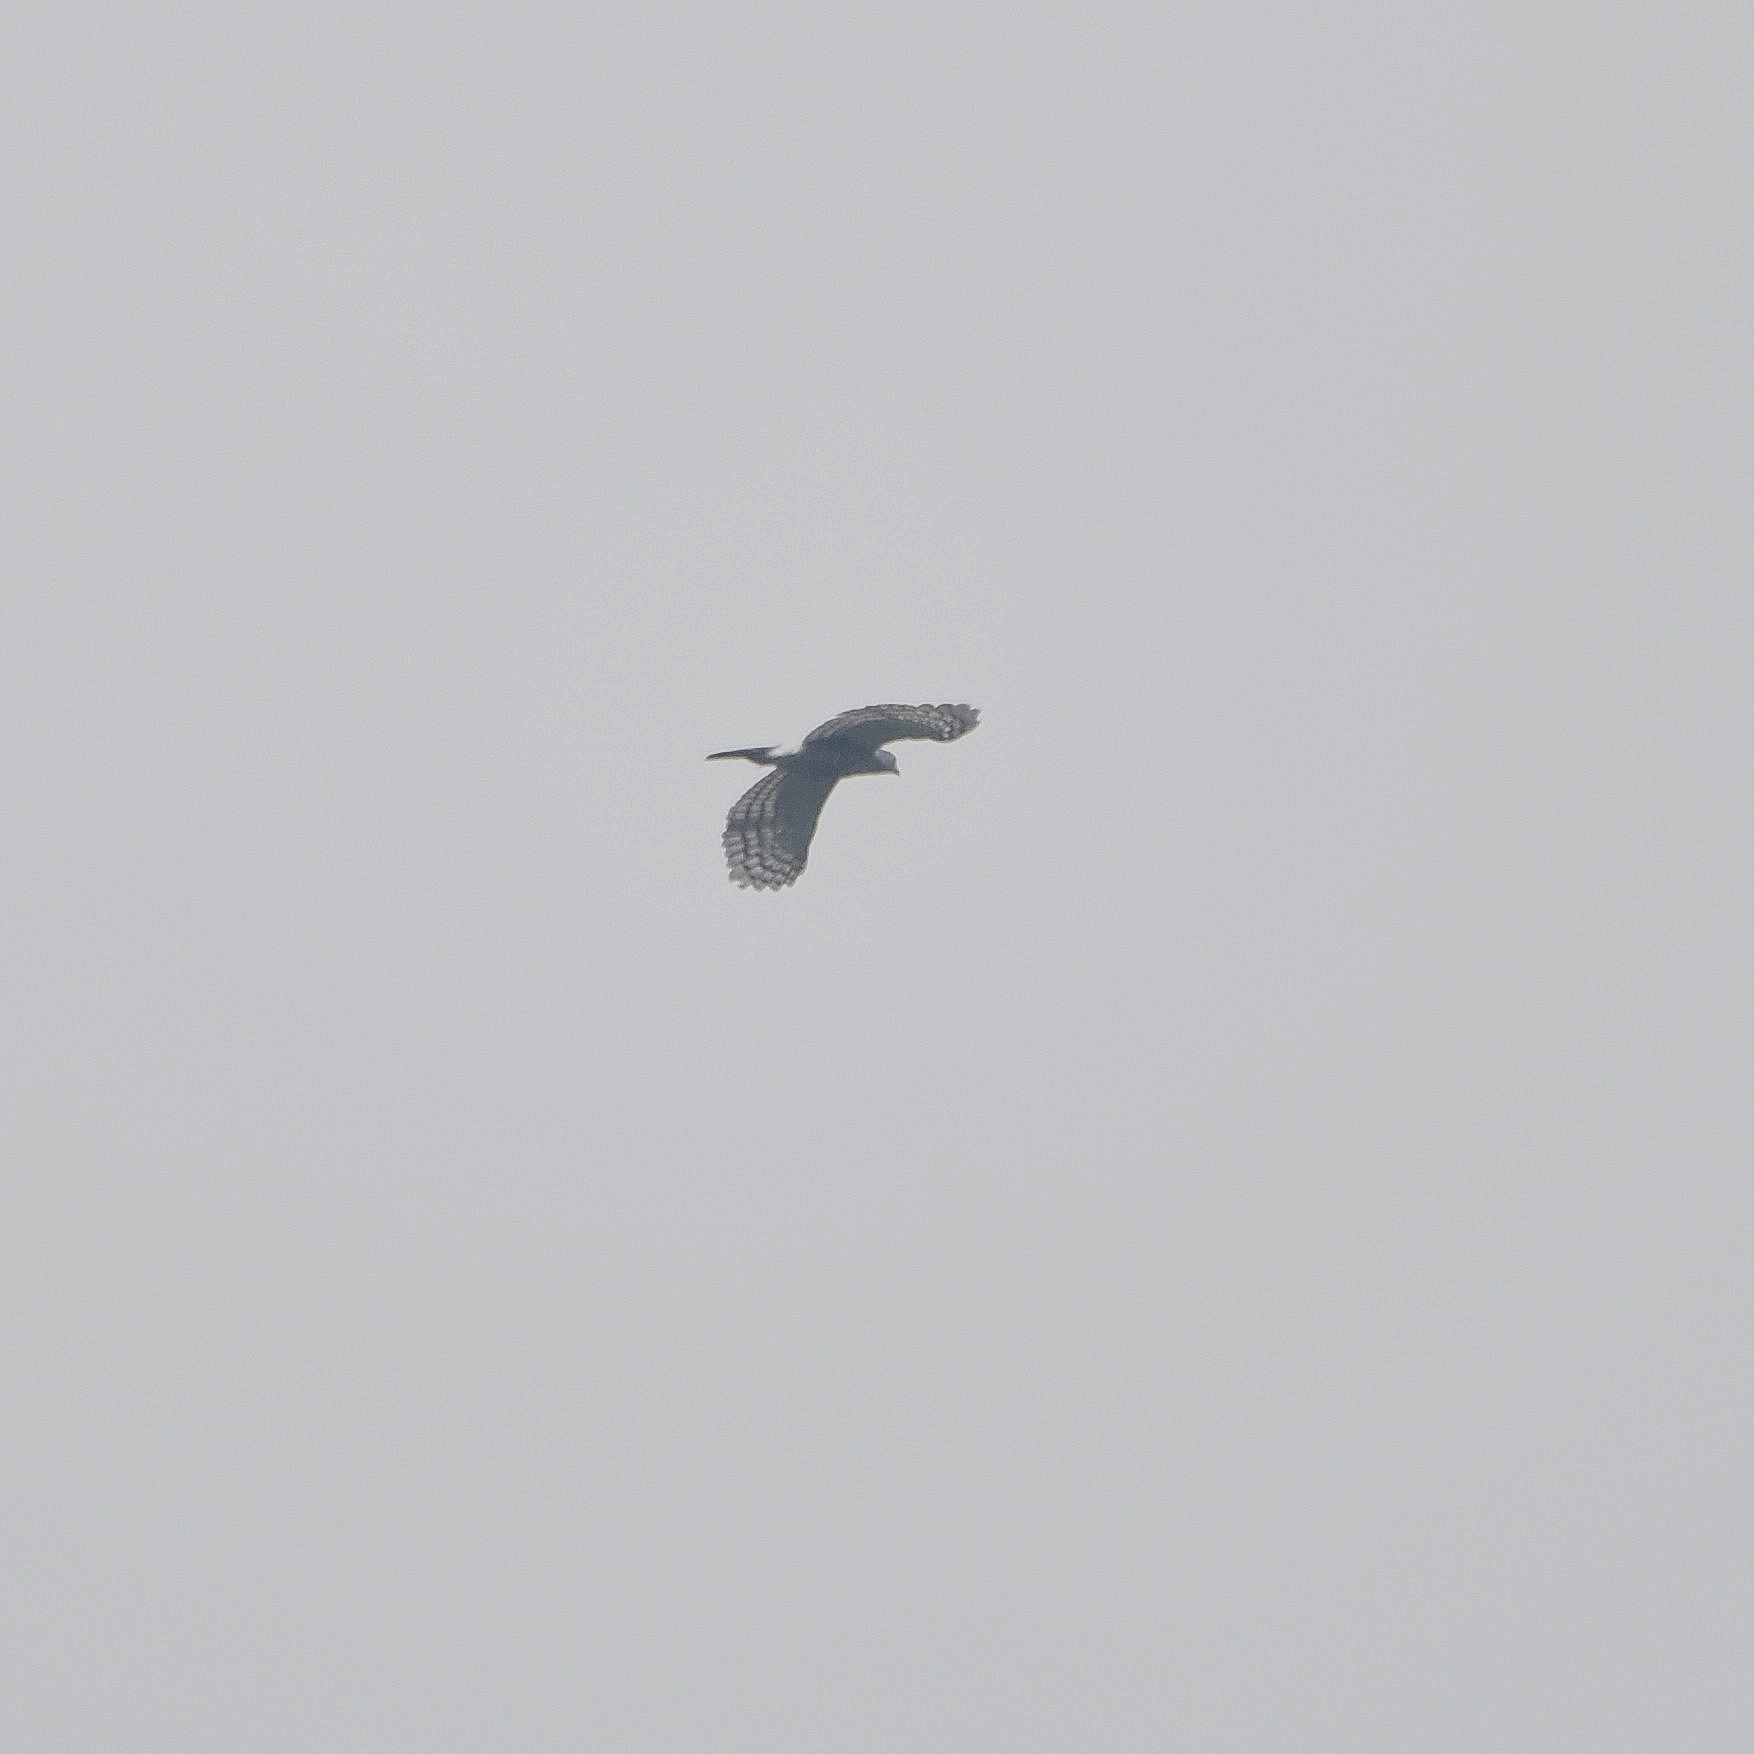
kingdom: Animalia
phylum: Chordata
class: Aves
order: Accipitriformes
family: Accipitridae
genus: Accipiter
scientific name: Accipiter trivirgatus
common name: Crested goshawk
